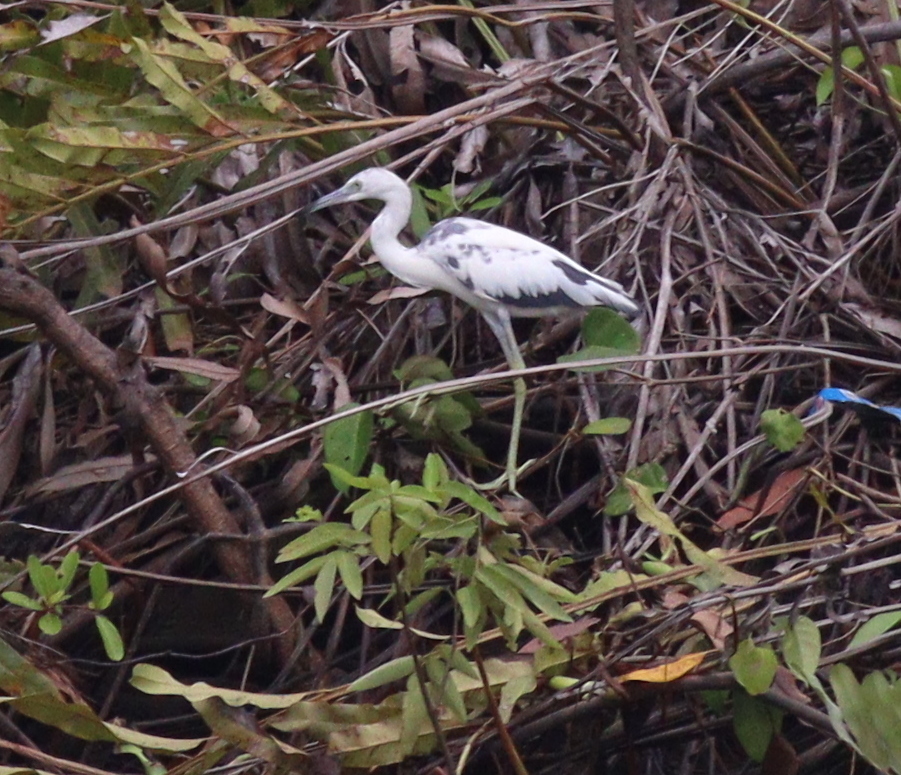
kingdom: Animalia
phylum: Chordata
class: Aves
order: Pelecaniformes
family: Ardeidae
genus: Egretta
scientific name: Egretta caerulea
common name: Little blue heron
